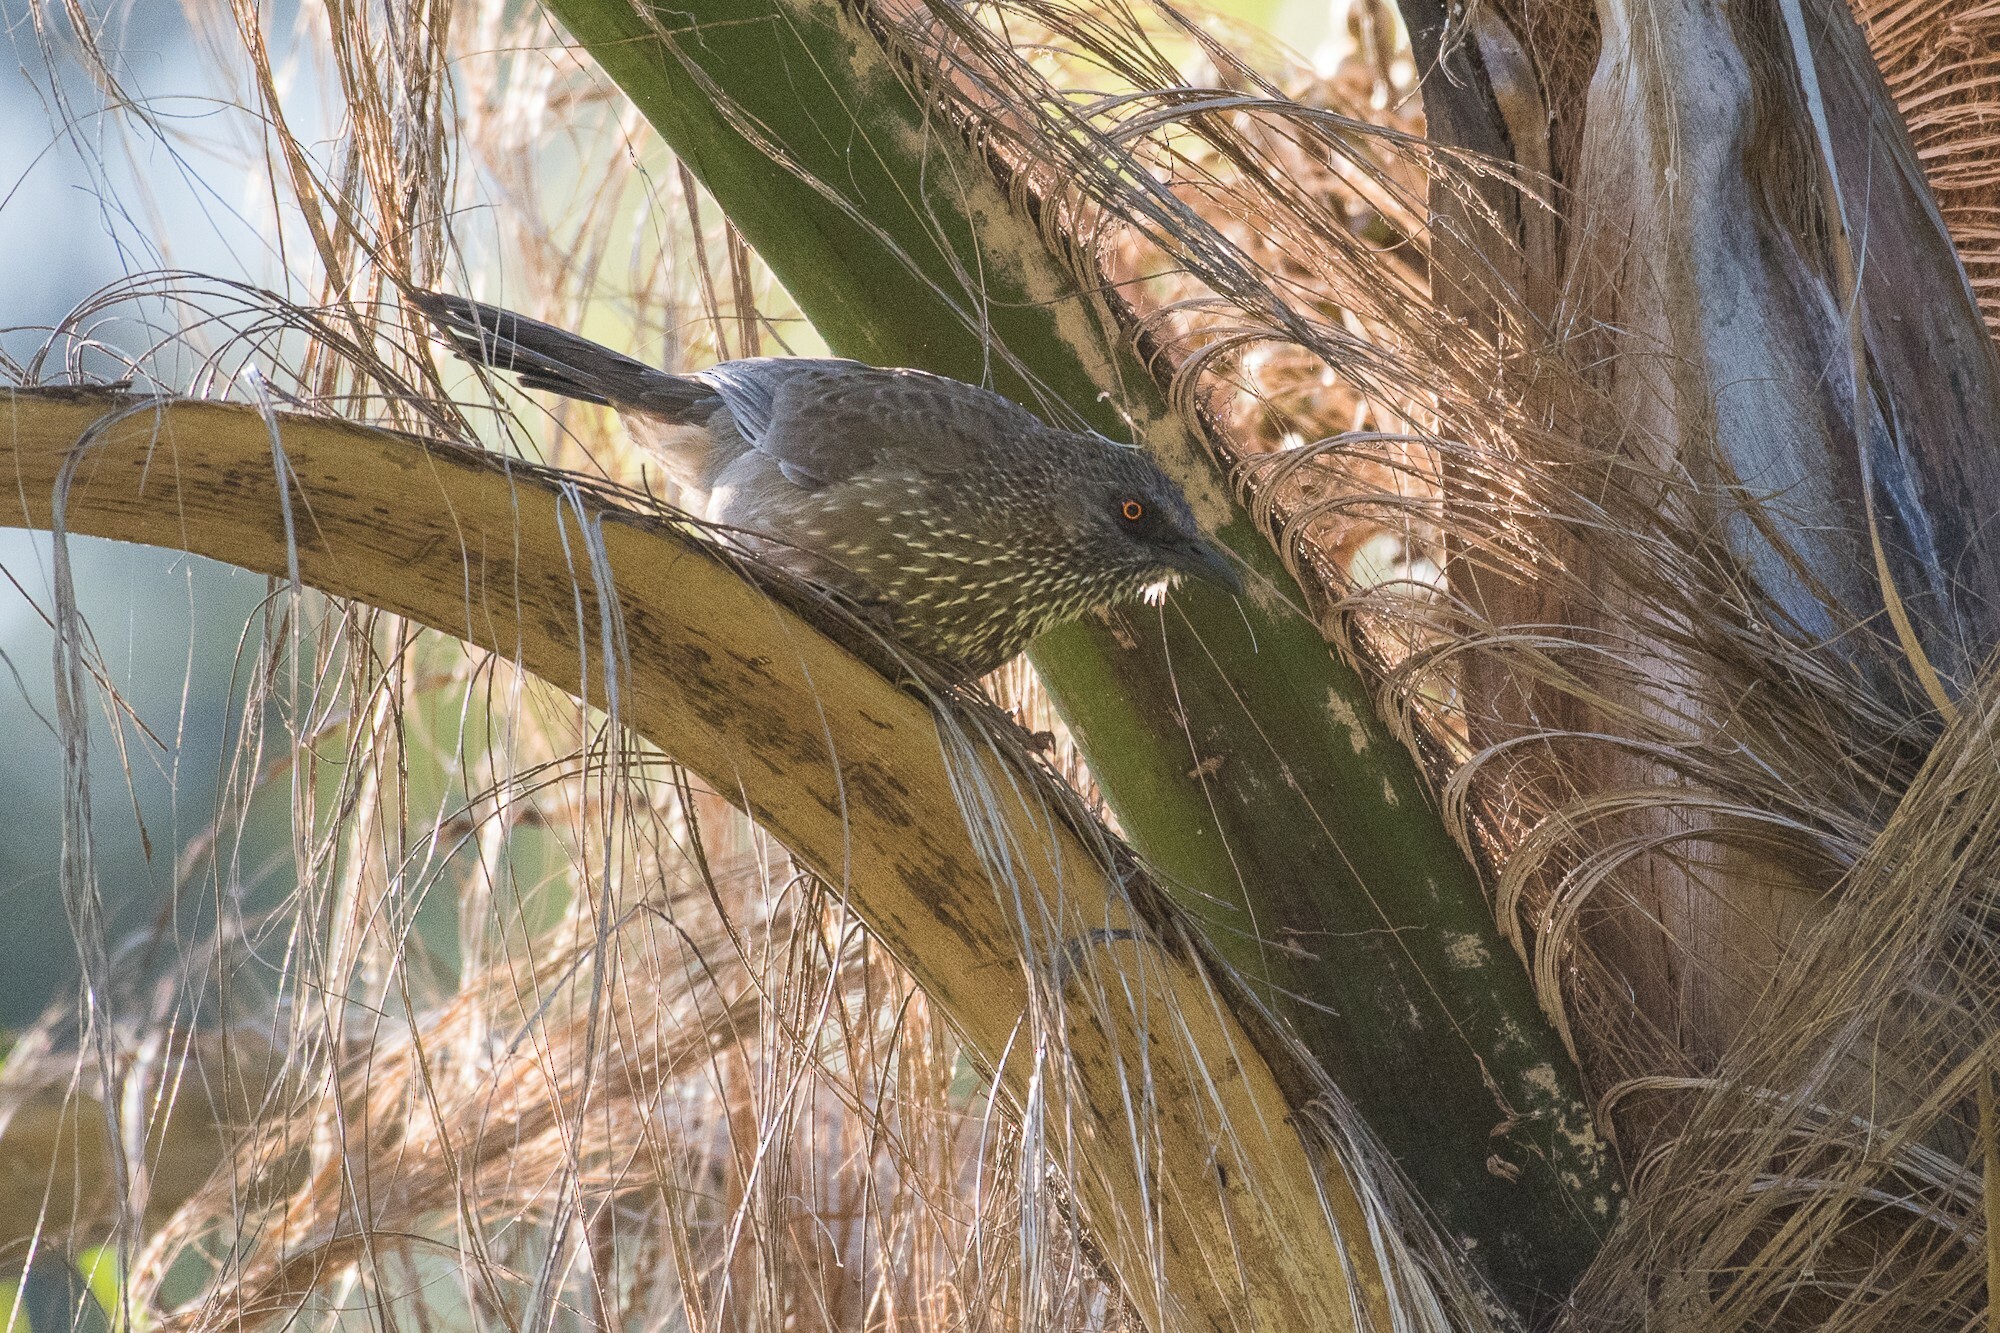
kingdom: Animalia
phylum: Chordata
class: Aves
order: Passeriformes
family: Leiothrichidae
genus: Turdoides
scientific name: Turdoides jardineii
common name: Arrow-marked babbler
